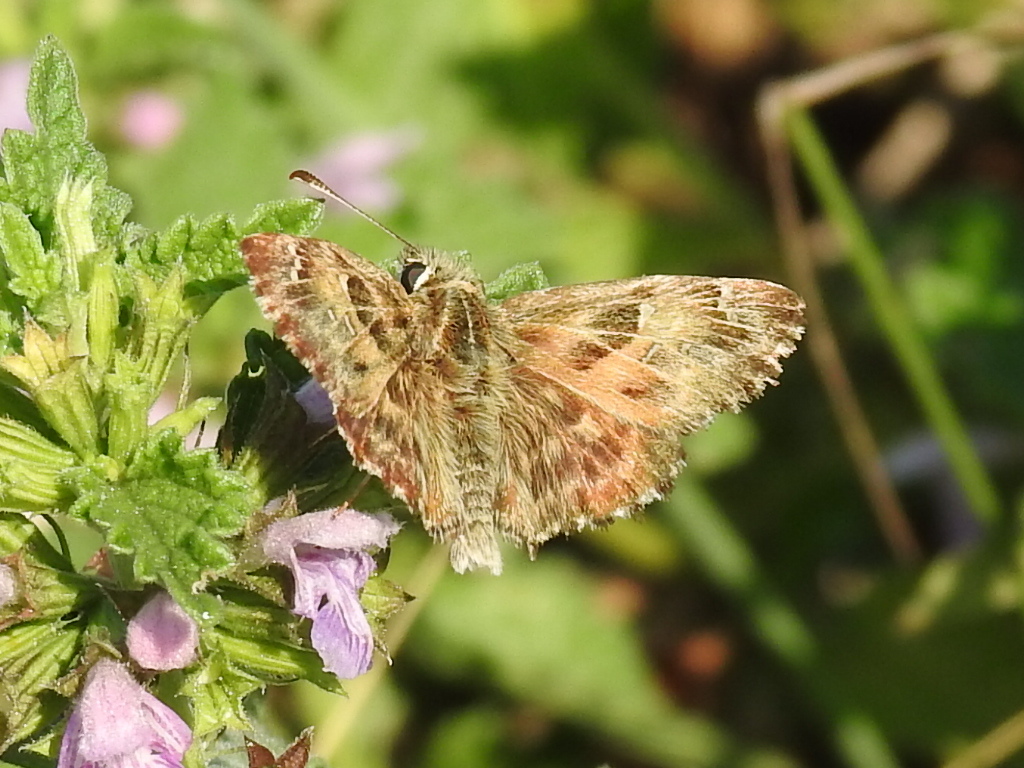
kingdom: Animalia
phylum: Arthropoda
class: Insecta
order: Lepidoptera
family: Hesperiidae
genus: Carcharodus
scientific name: Carcharodus alceae
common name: Mallow skipper
